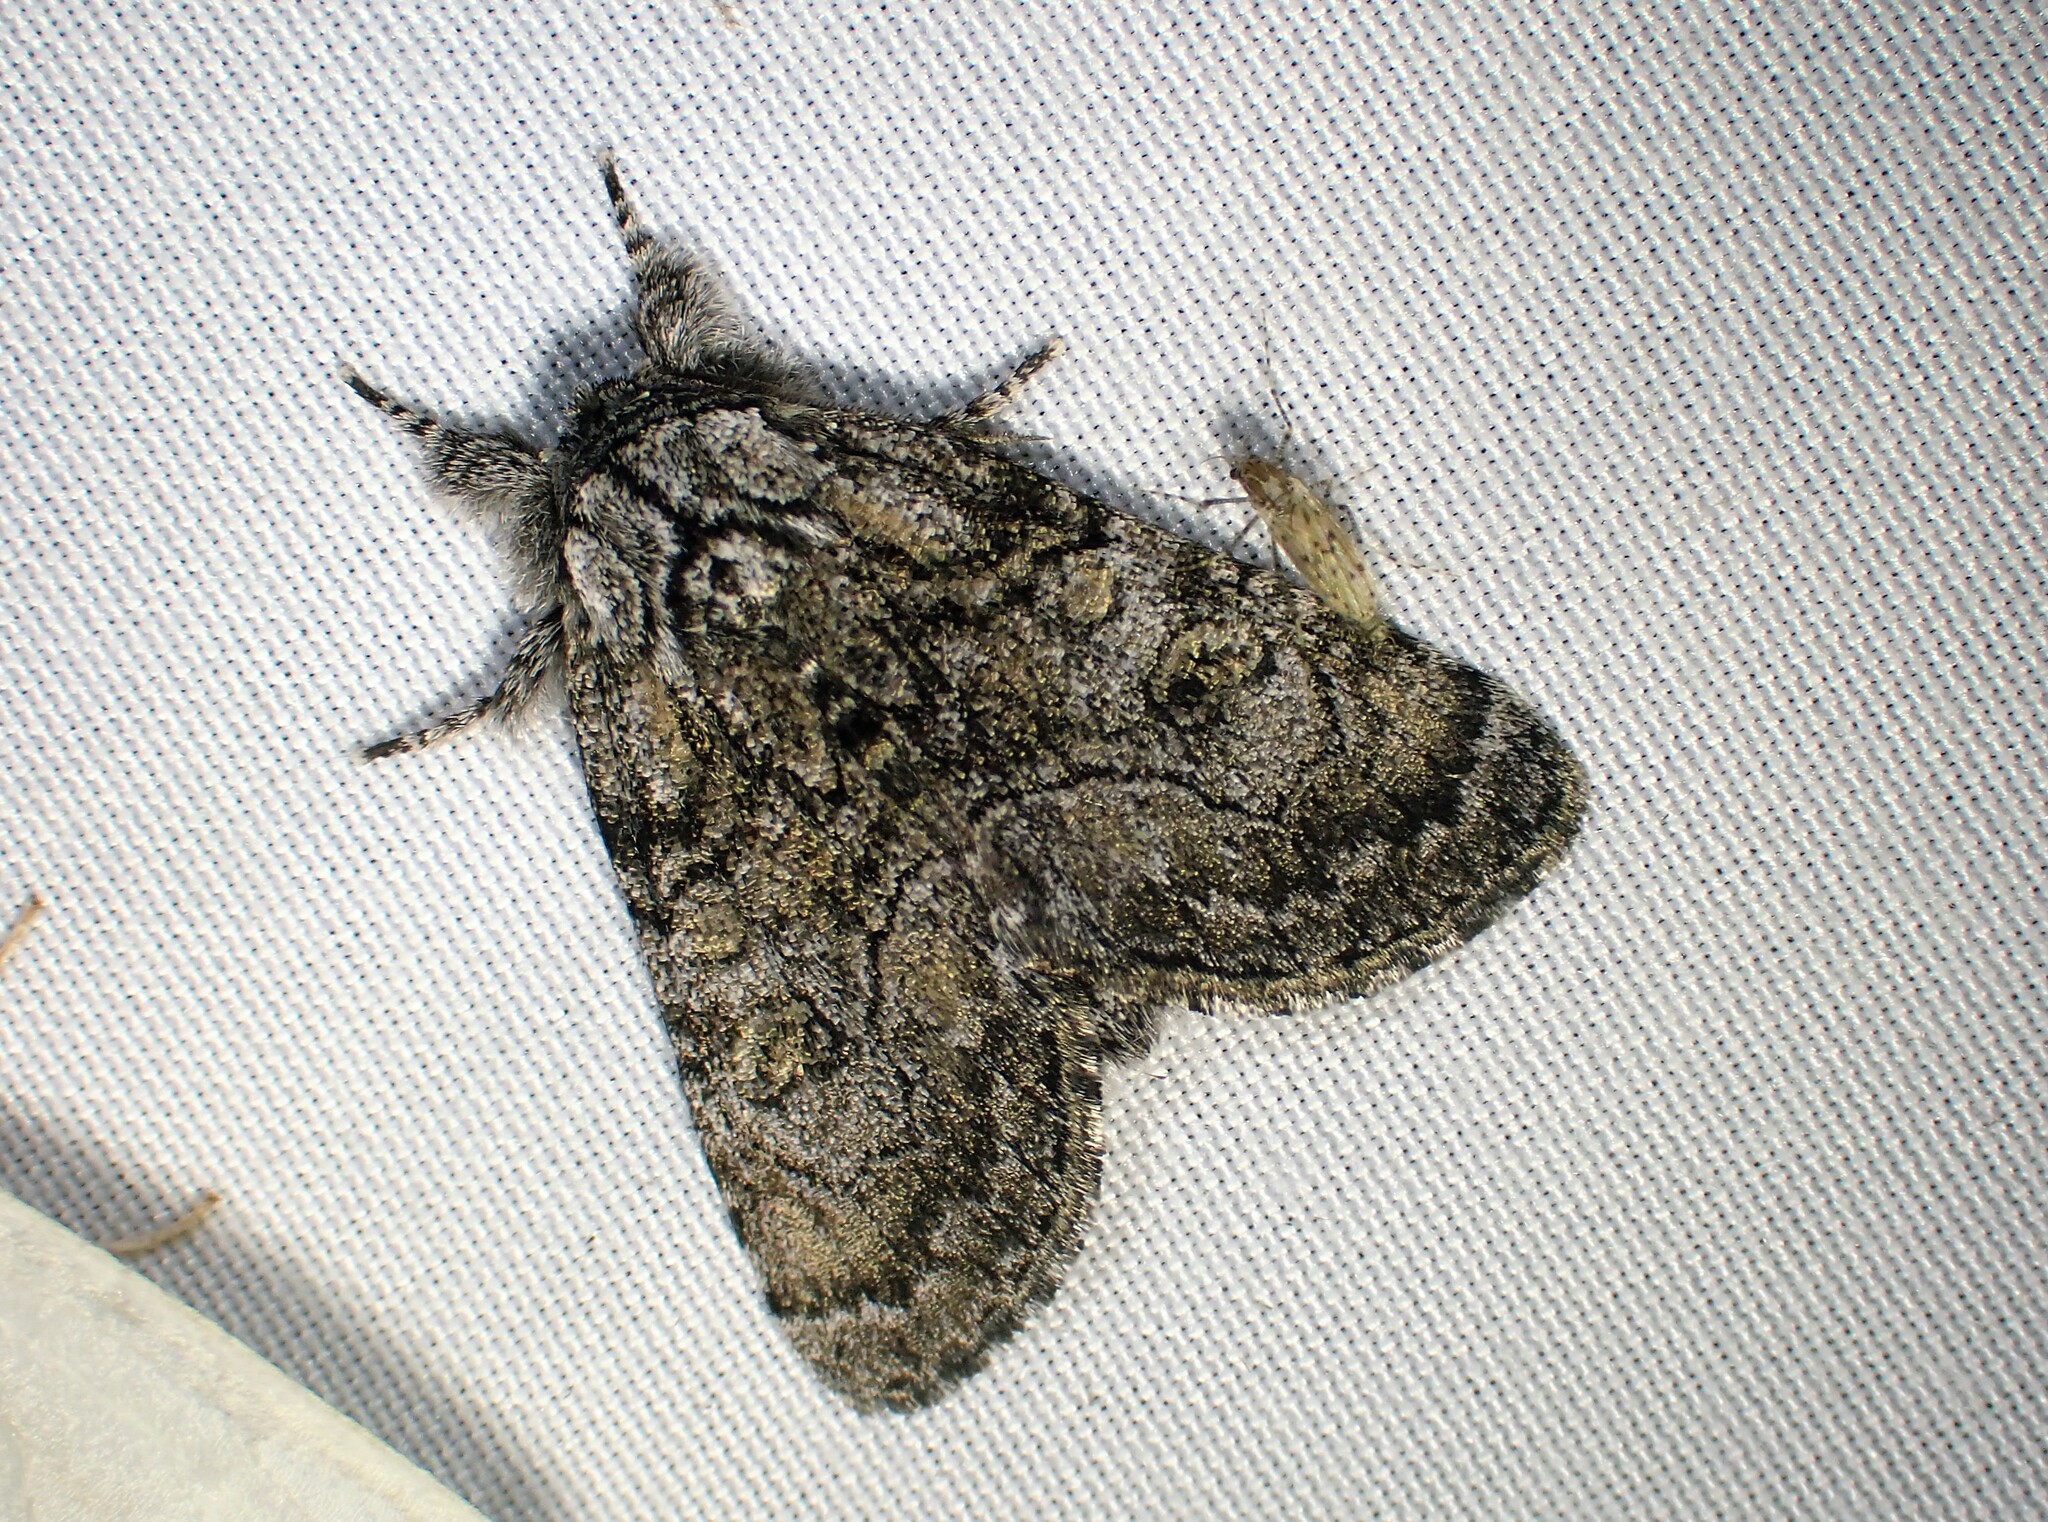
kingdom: Animalia
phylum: Arthropoda
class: Insecta
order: Lepidoptera
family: Noctuidae
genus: Raphia
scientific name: Raphia frater
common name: Brother
